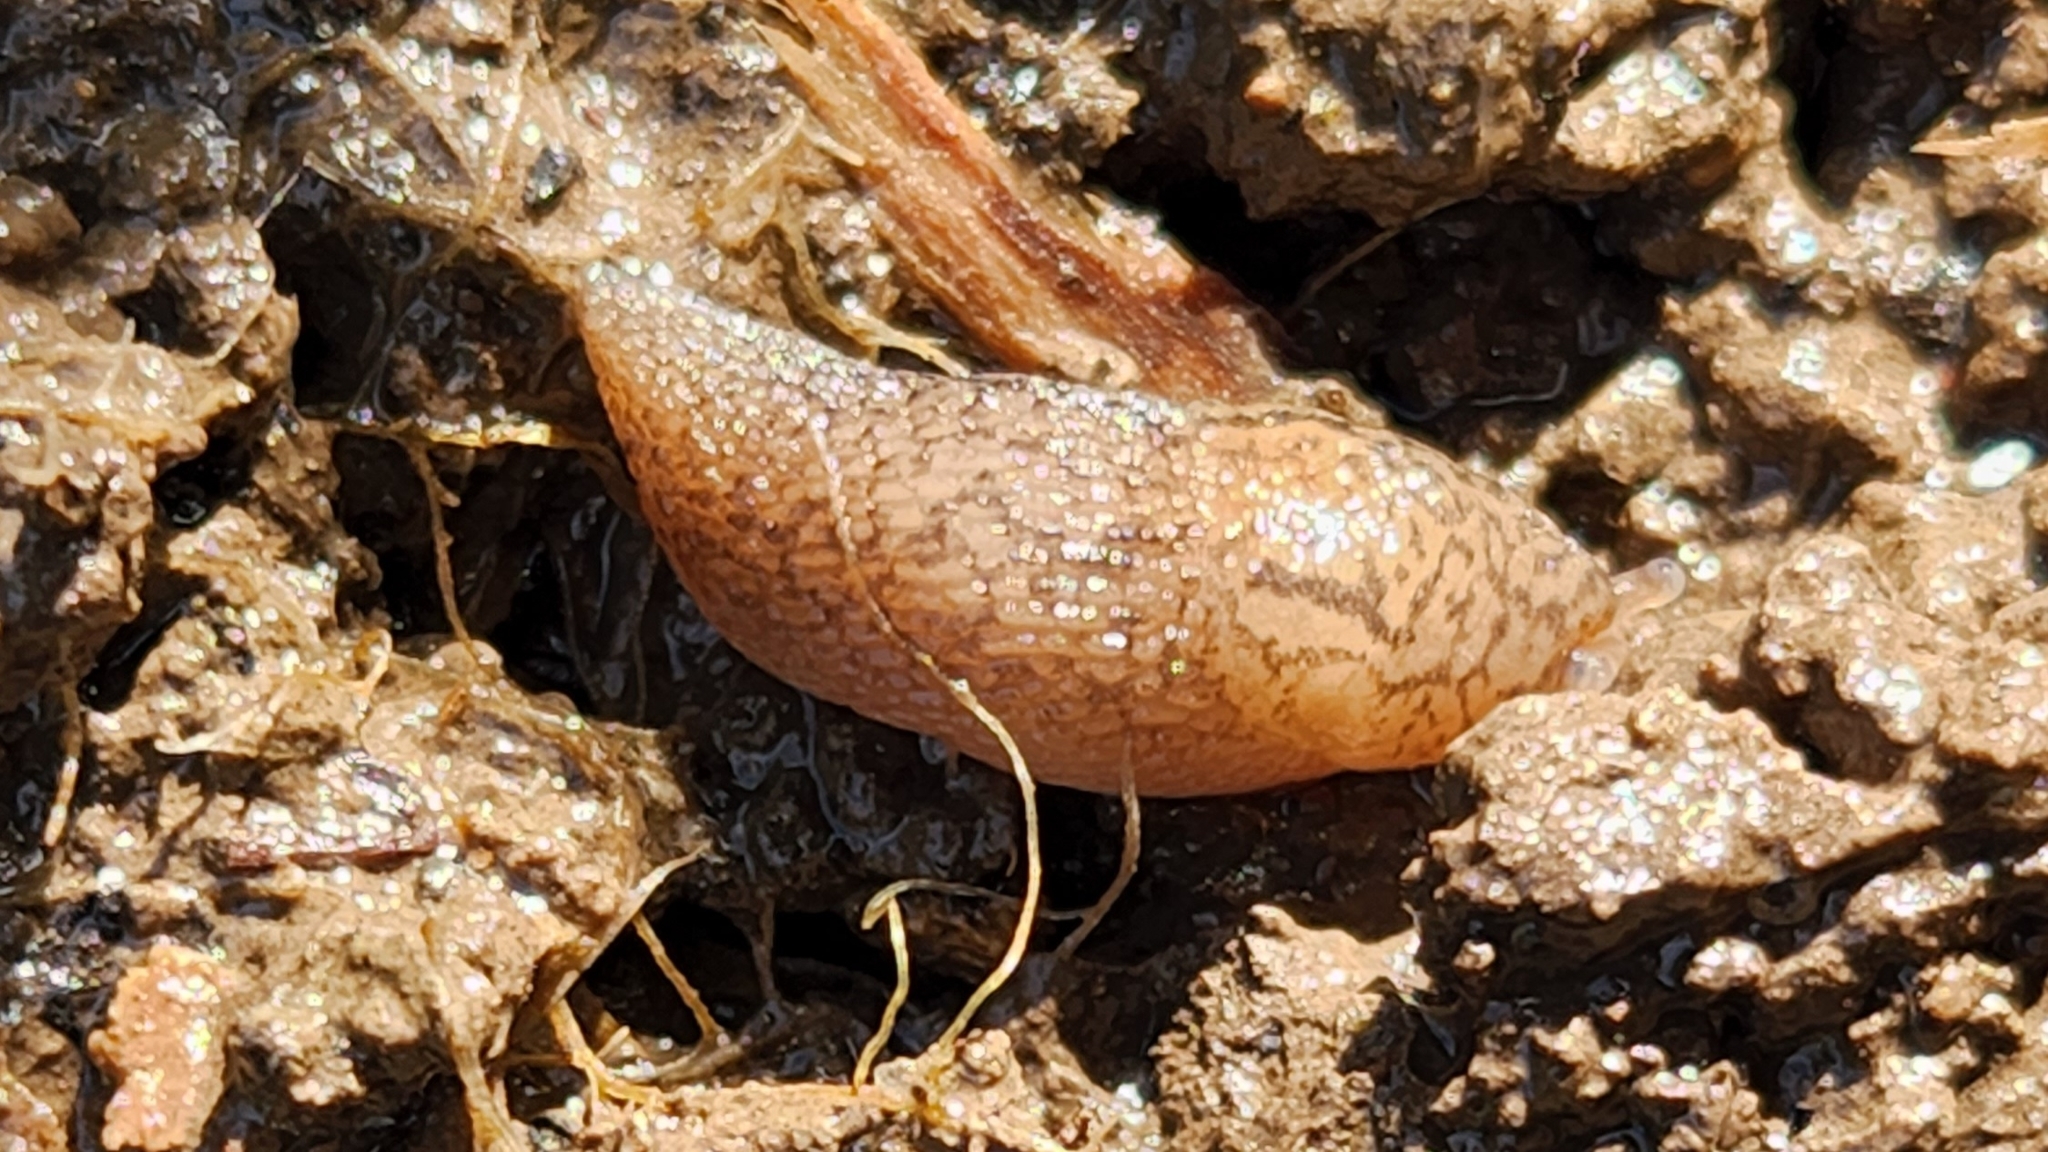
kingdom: Animalia
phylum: Mollusca
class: Gastropoda
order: Stylommatophora
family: Agriolimacidae
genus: Deroceras
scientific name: Deroceras reticulatum
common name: Gray field slug
